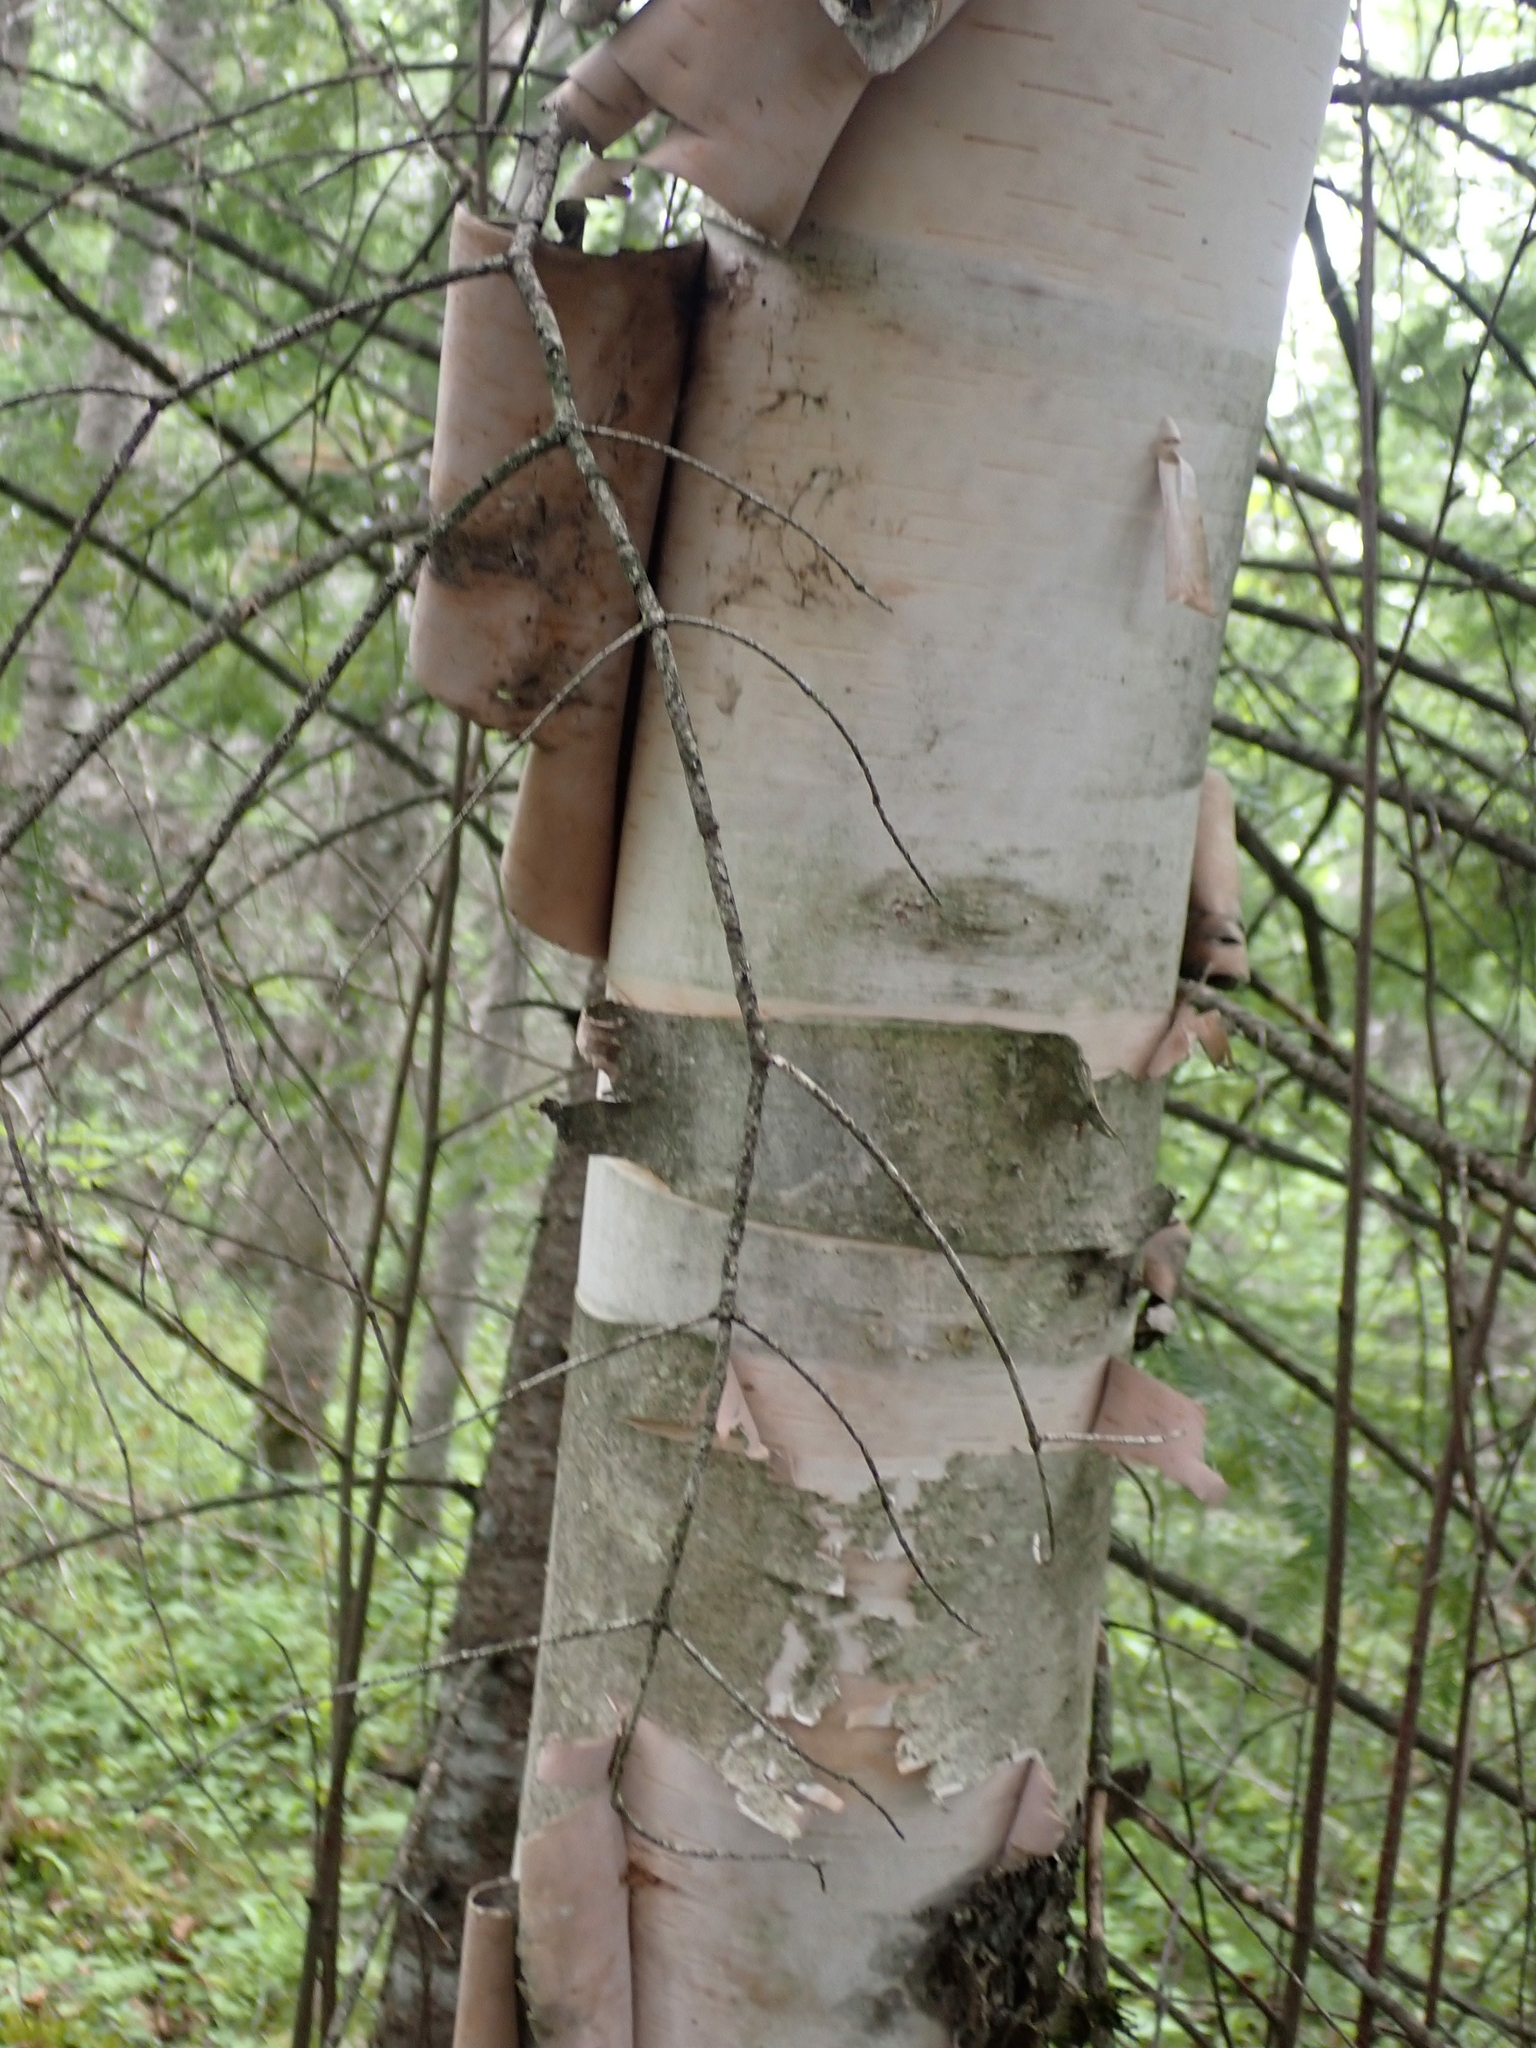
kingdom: Plantae
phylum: Tracheophyta
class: Magnoliopsida
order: Fagales
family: Betulaceae
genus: Betula
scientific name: Betula papyrifera
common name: Paper birch
